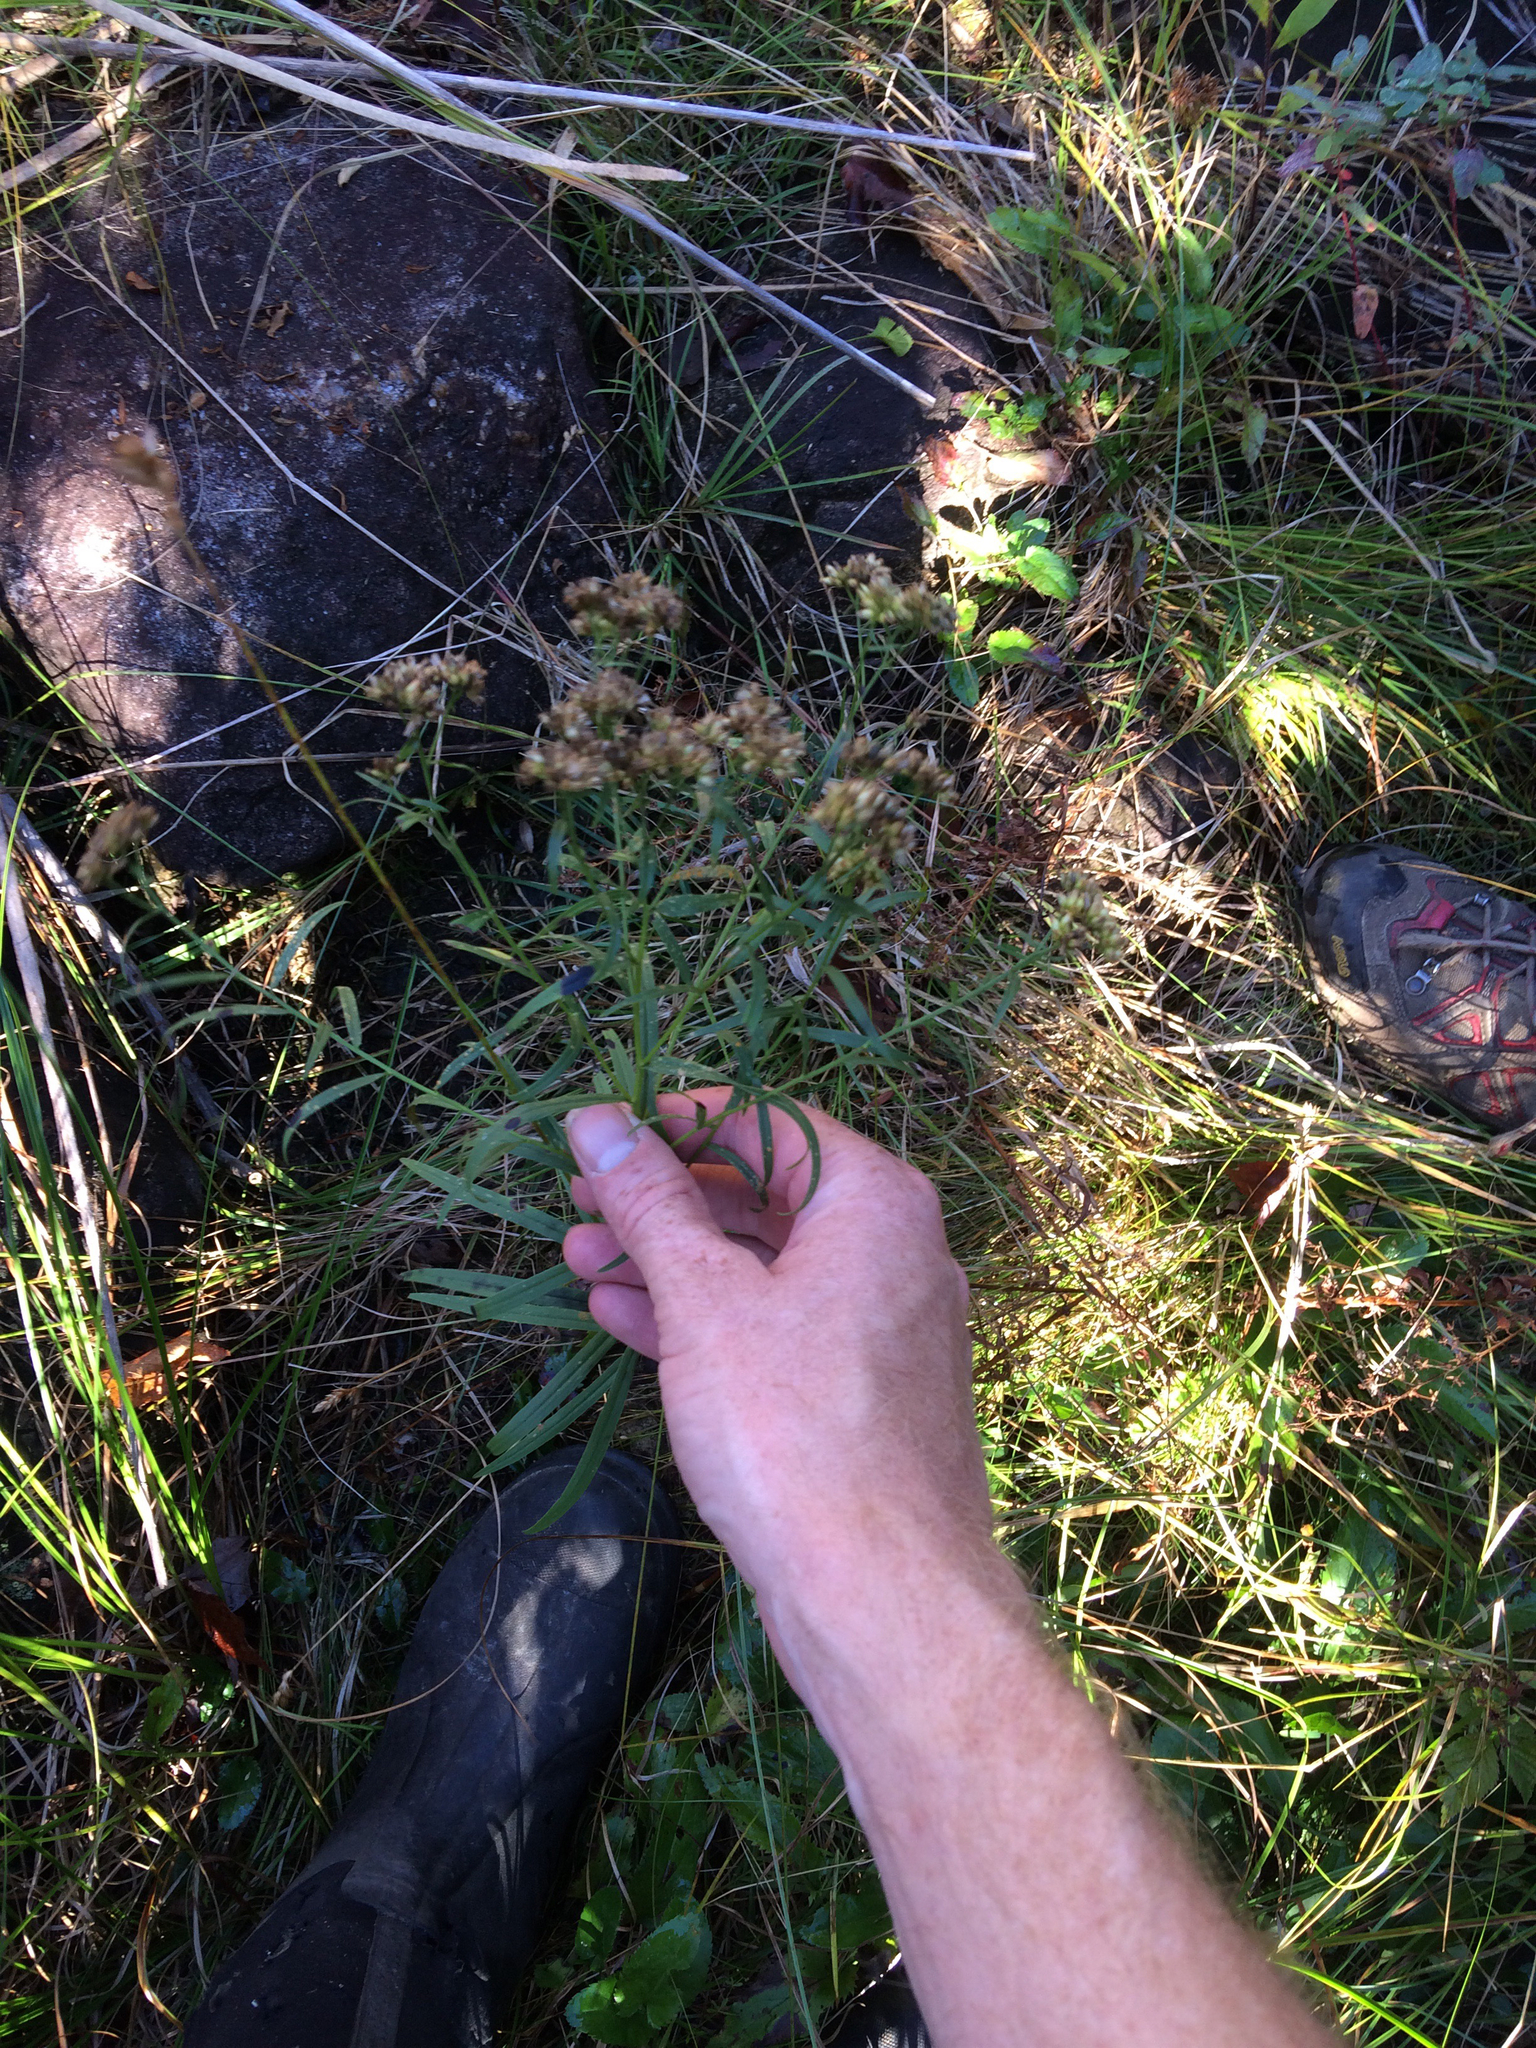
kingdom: Plantae
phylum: Tracheophyta
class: Magnoliopsida
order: Asterales
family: Asteraceae
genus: Euthamia
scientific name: Euthamia graminifolia
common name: Common goldentop
